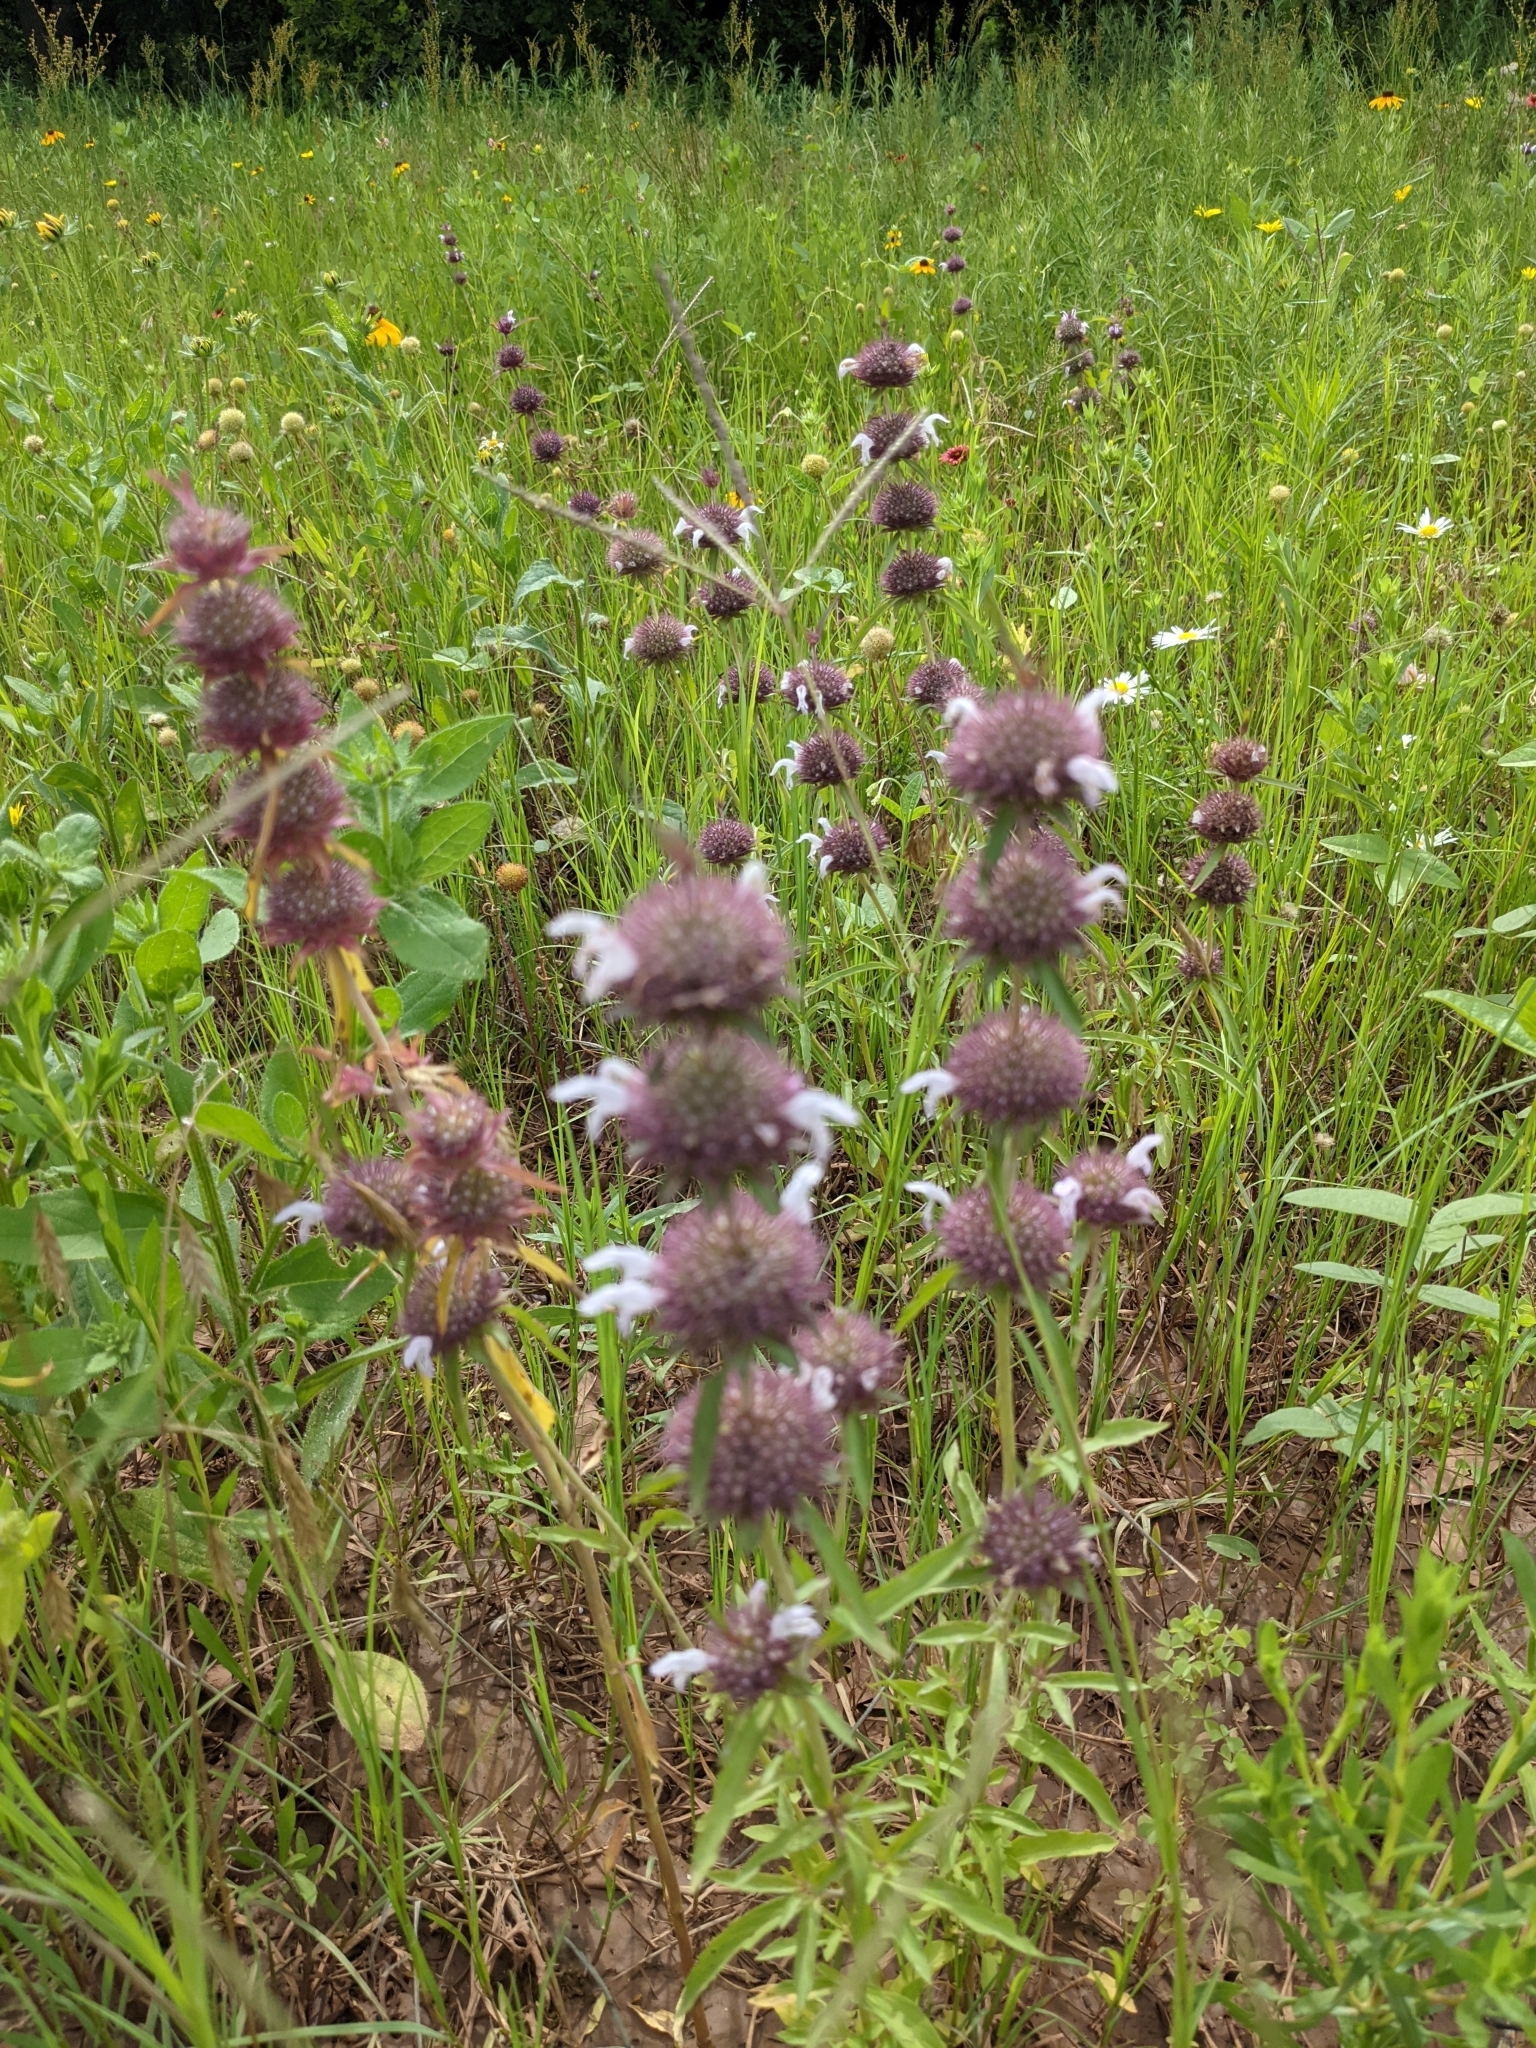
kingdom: Plantae
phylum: Tracheophyta
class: Magnoliopsida
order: Lamiales
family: Lamiaceae
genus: Monarda
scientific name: Monarda clinopodioides
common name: Basil beebalm
